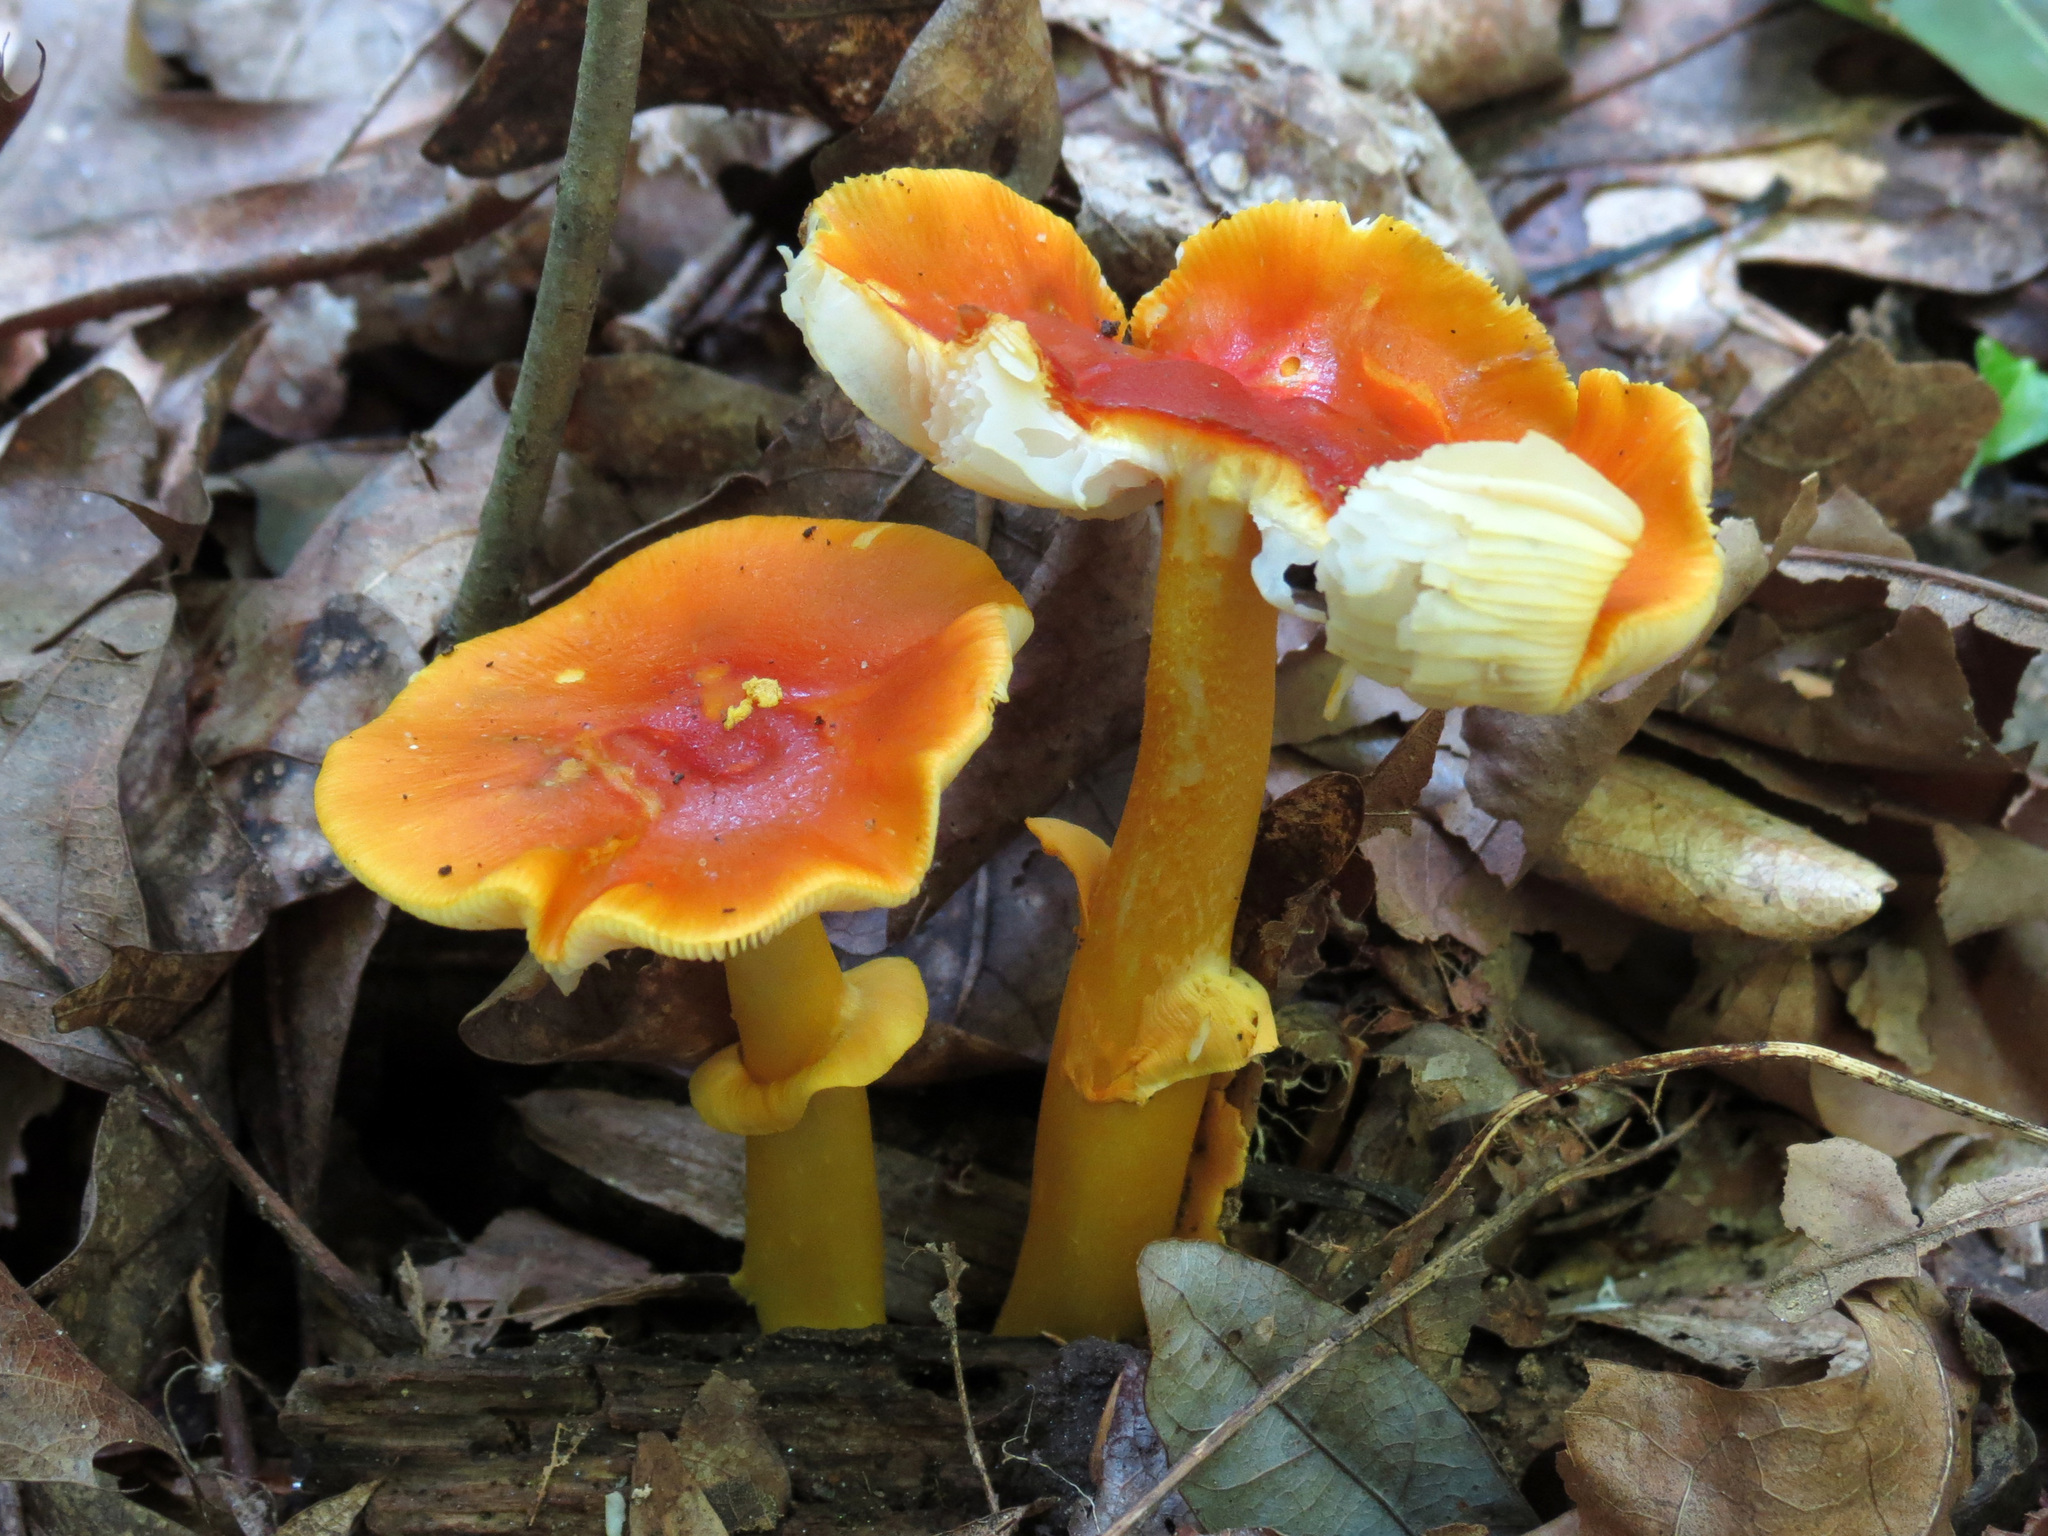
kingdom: Fungi
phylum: Basidiomycota
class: Agaricomycetes
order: Agaricales
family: Amanitaceae
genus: Amanita
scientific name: Amanita flavoconia
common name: Yellow patches
